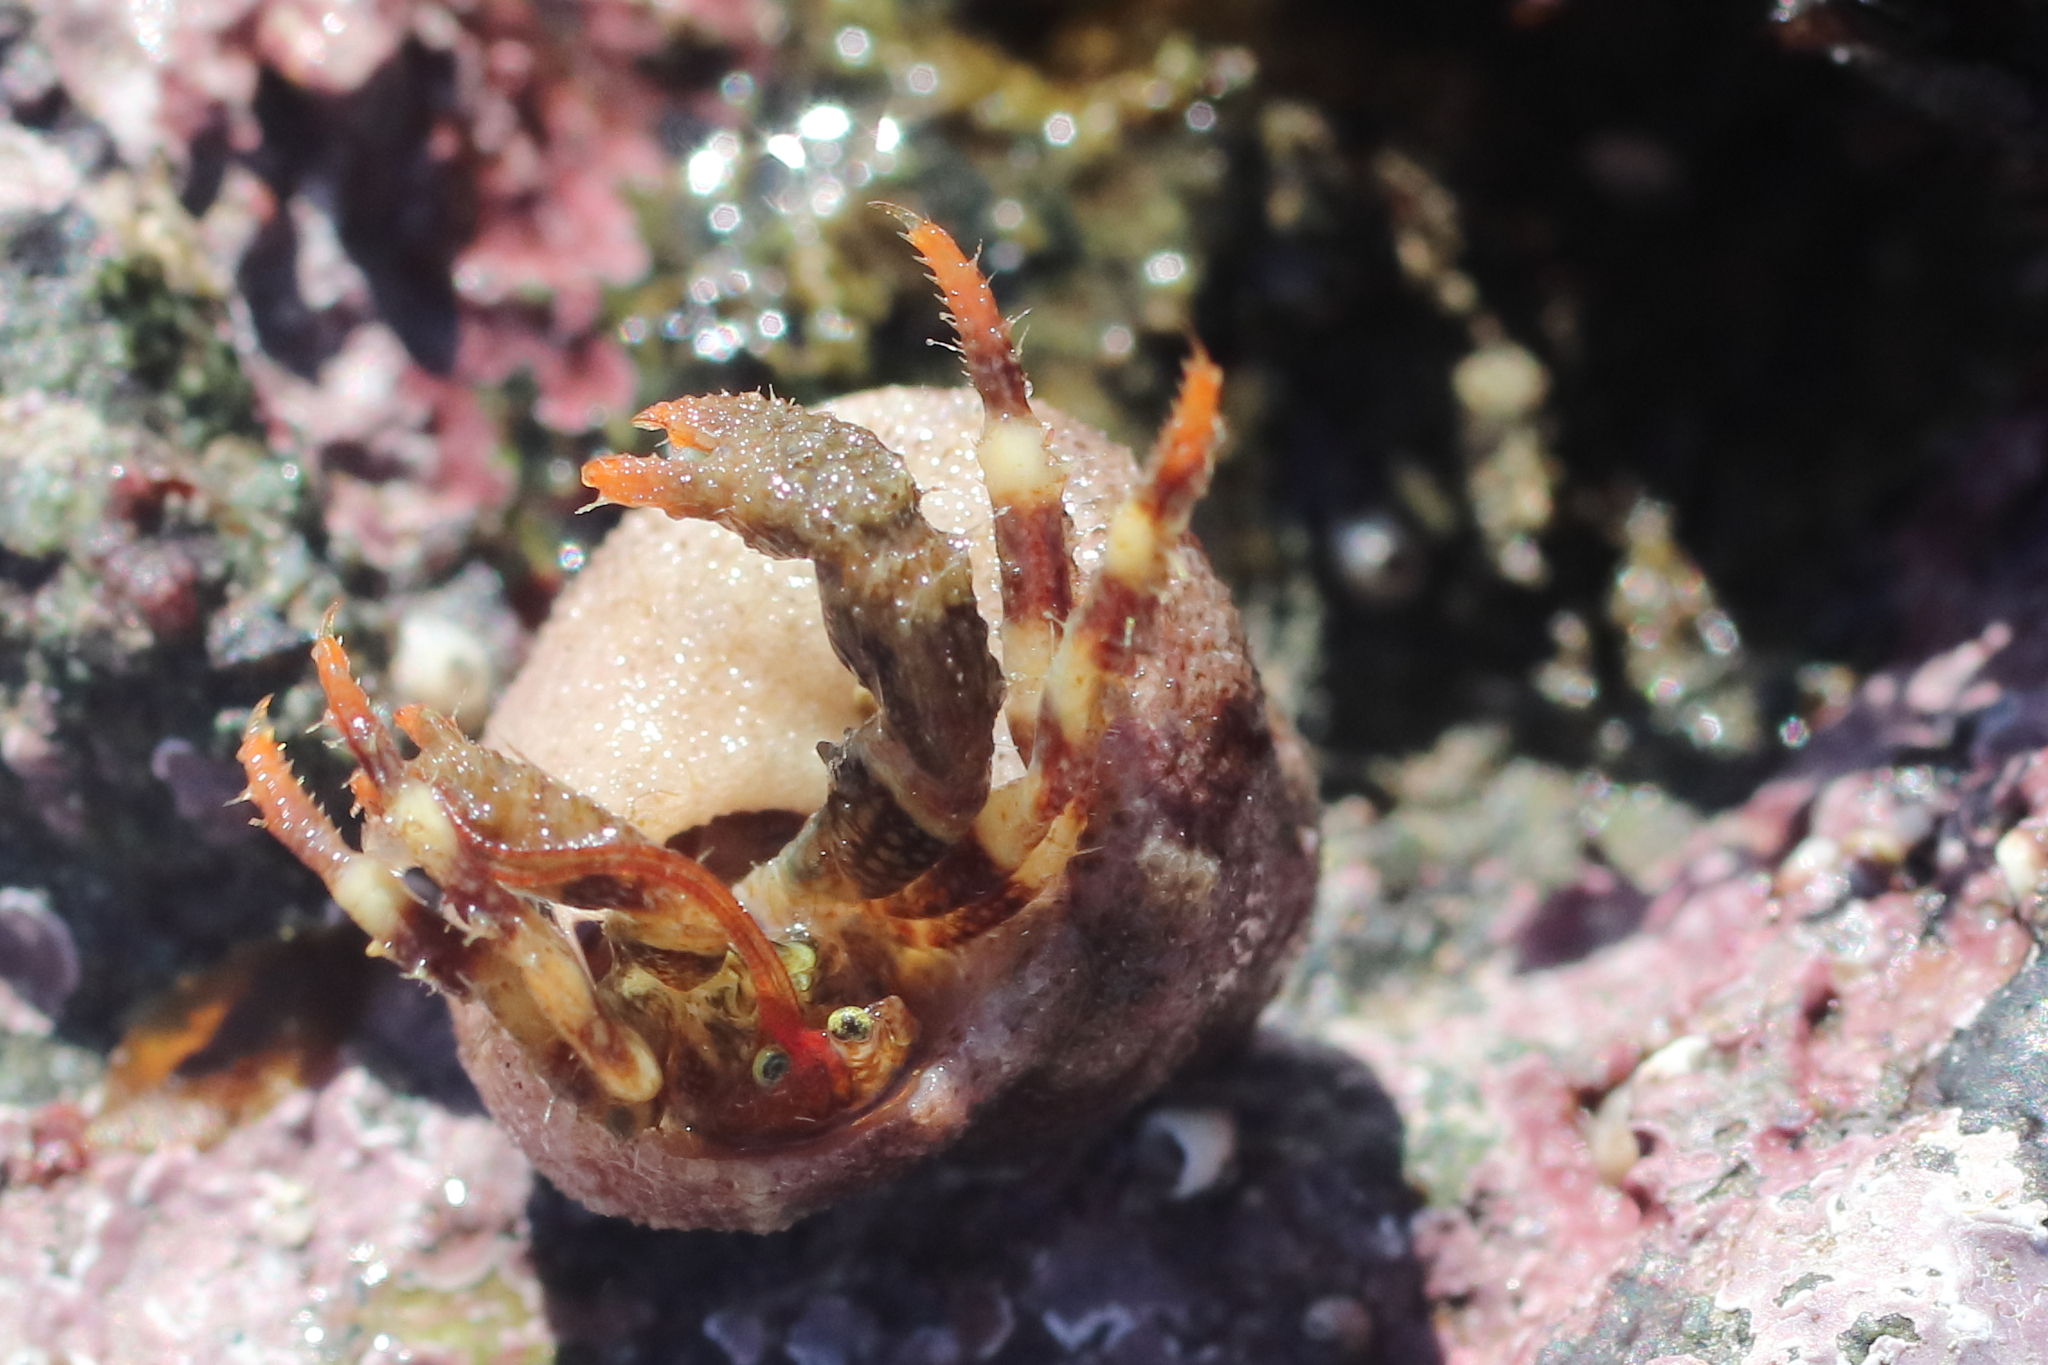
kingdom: Animalia
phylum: Arthropoda
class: Malacostraca
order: Decapoda
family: Paguridae
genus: Pagurus
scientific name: Pagurus caurinus
